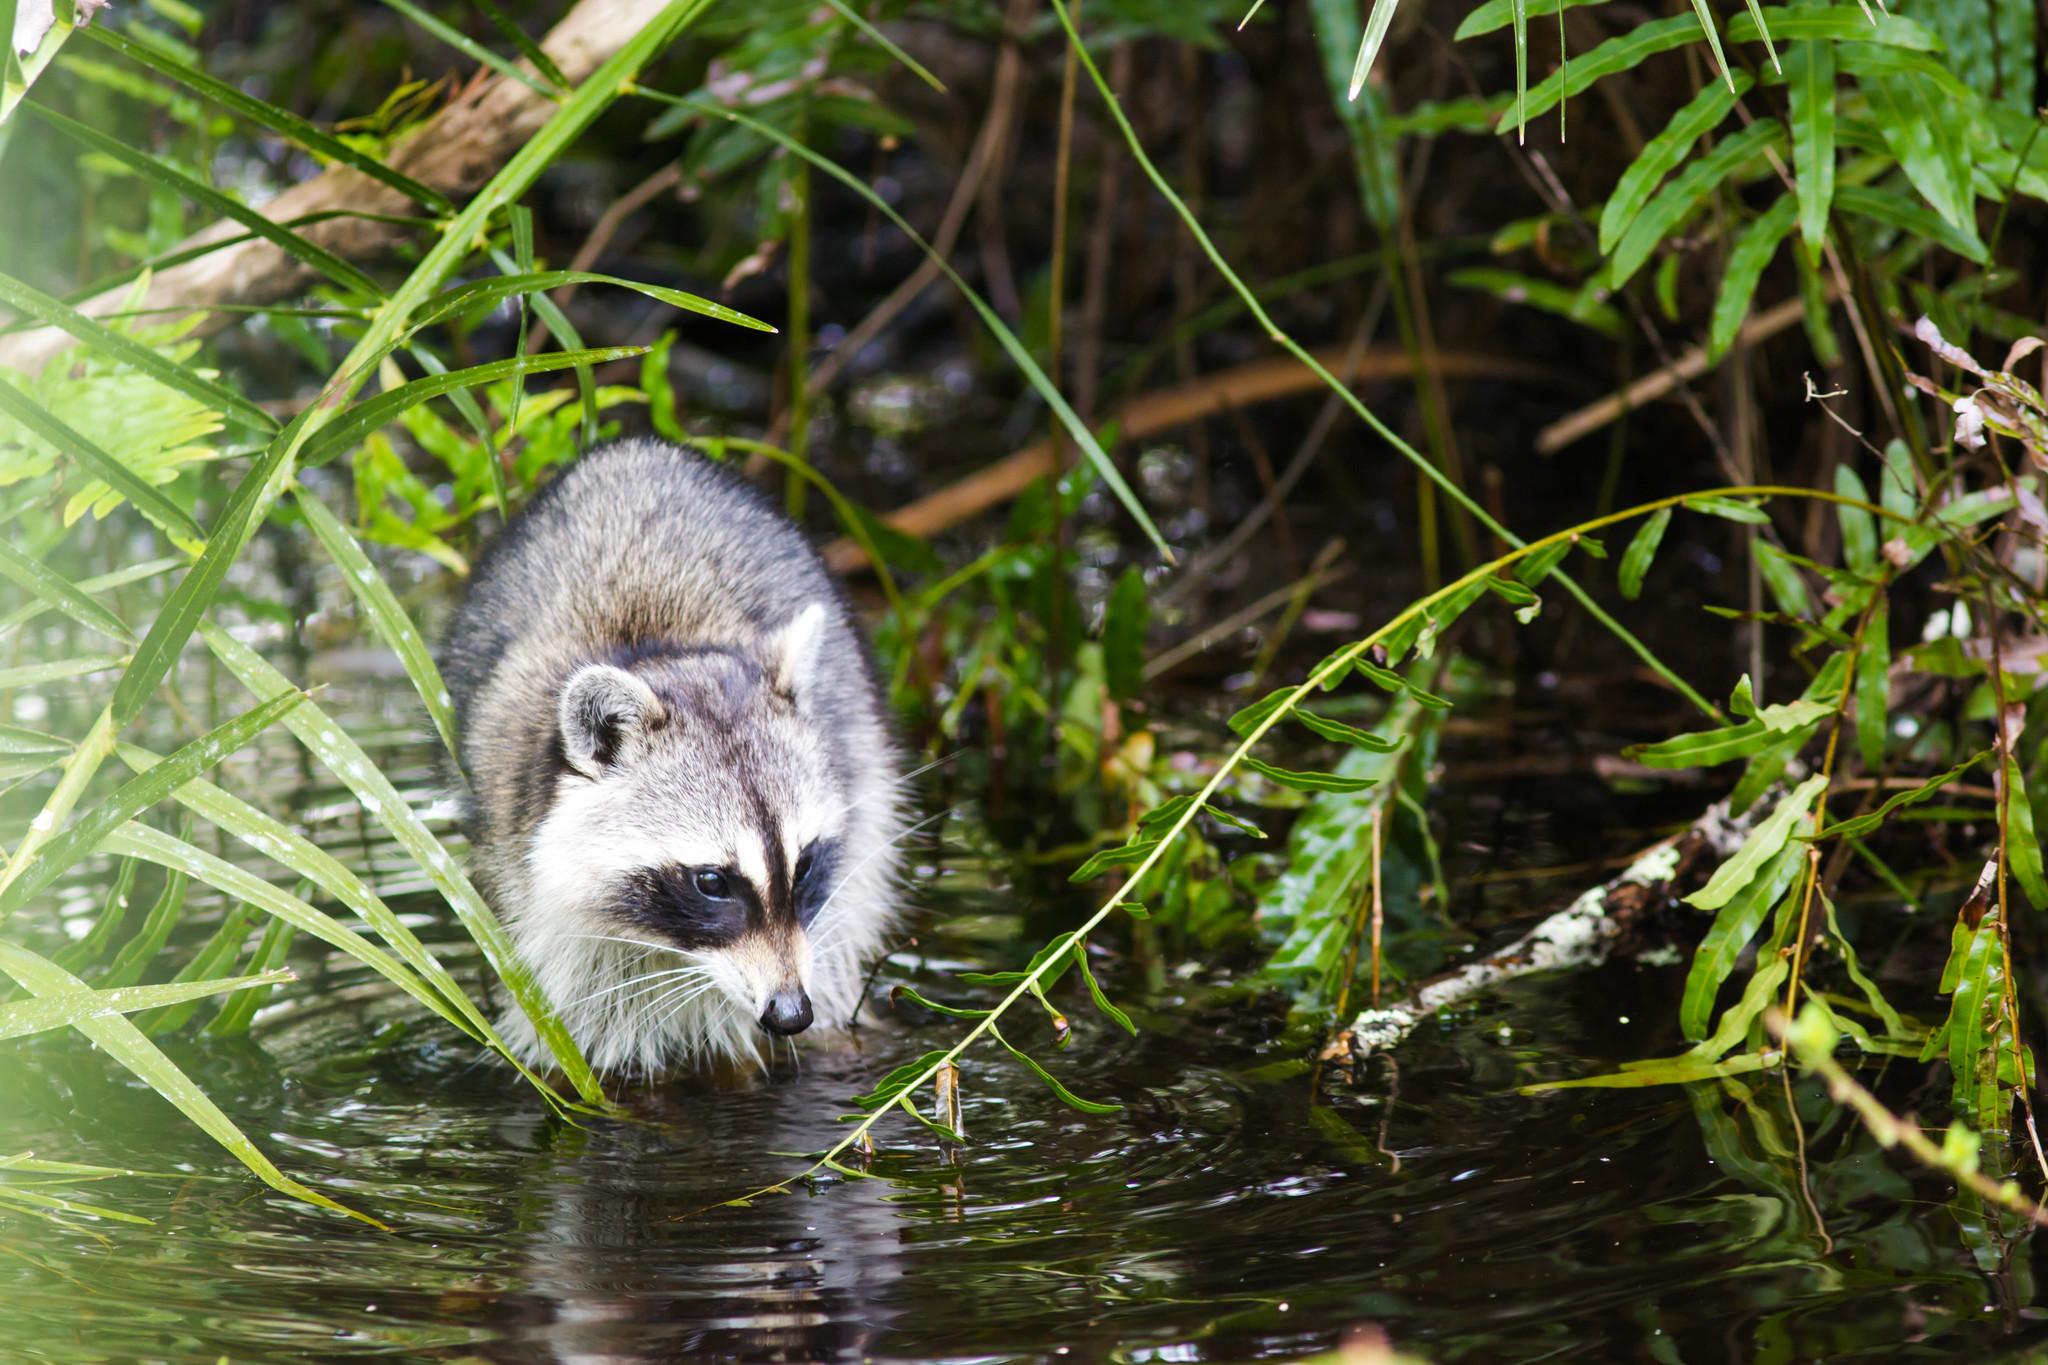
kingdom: Animalia
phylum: Chordata
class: Mammalia
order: Carnivora
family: Procyonidae
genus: Procyon
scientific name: Procyon lotor
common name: Raccoon
